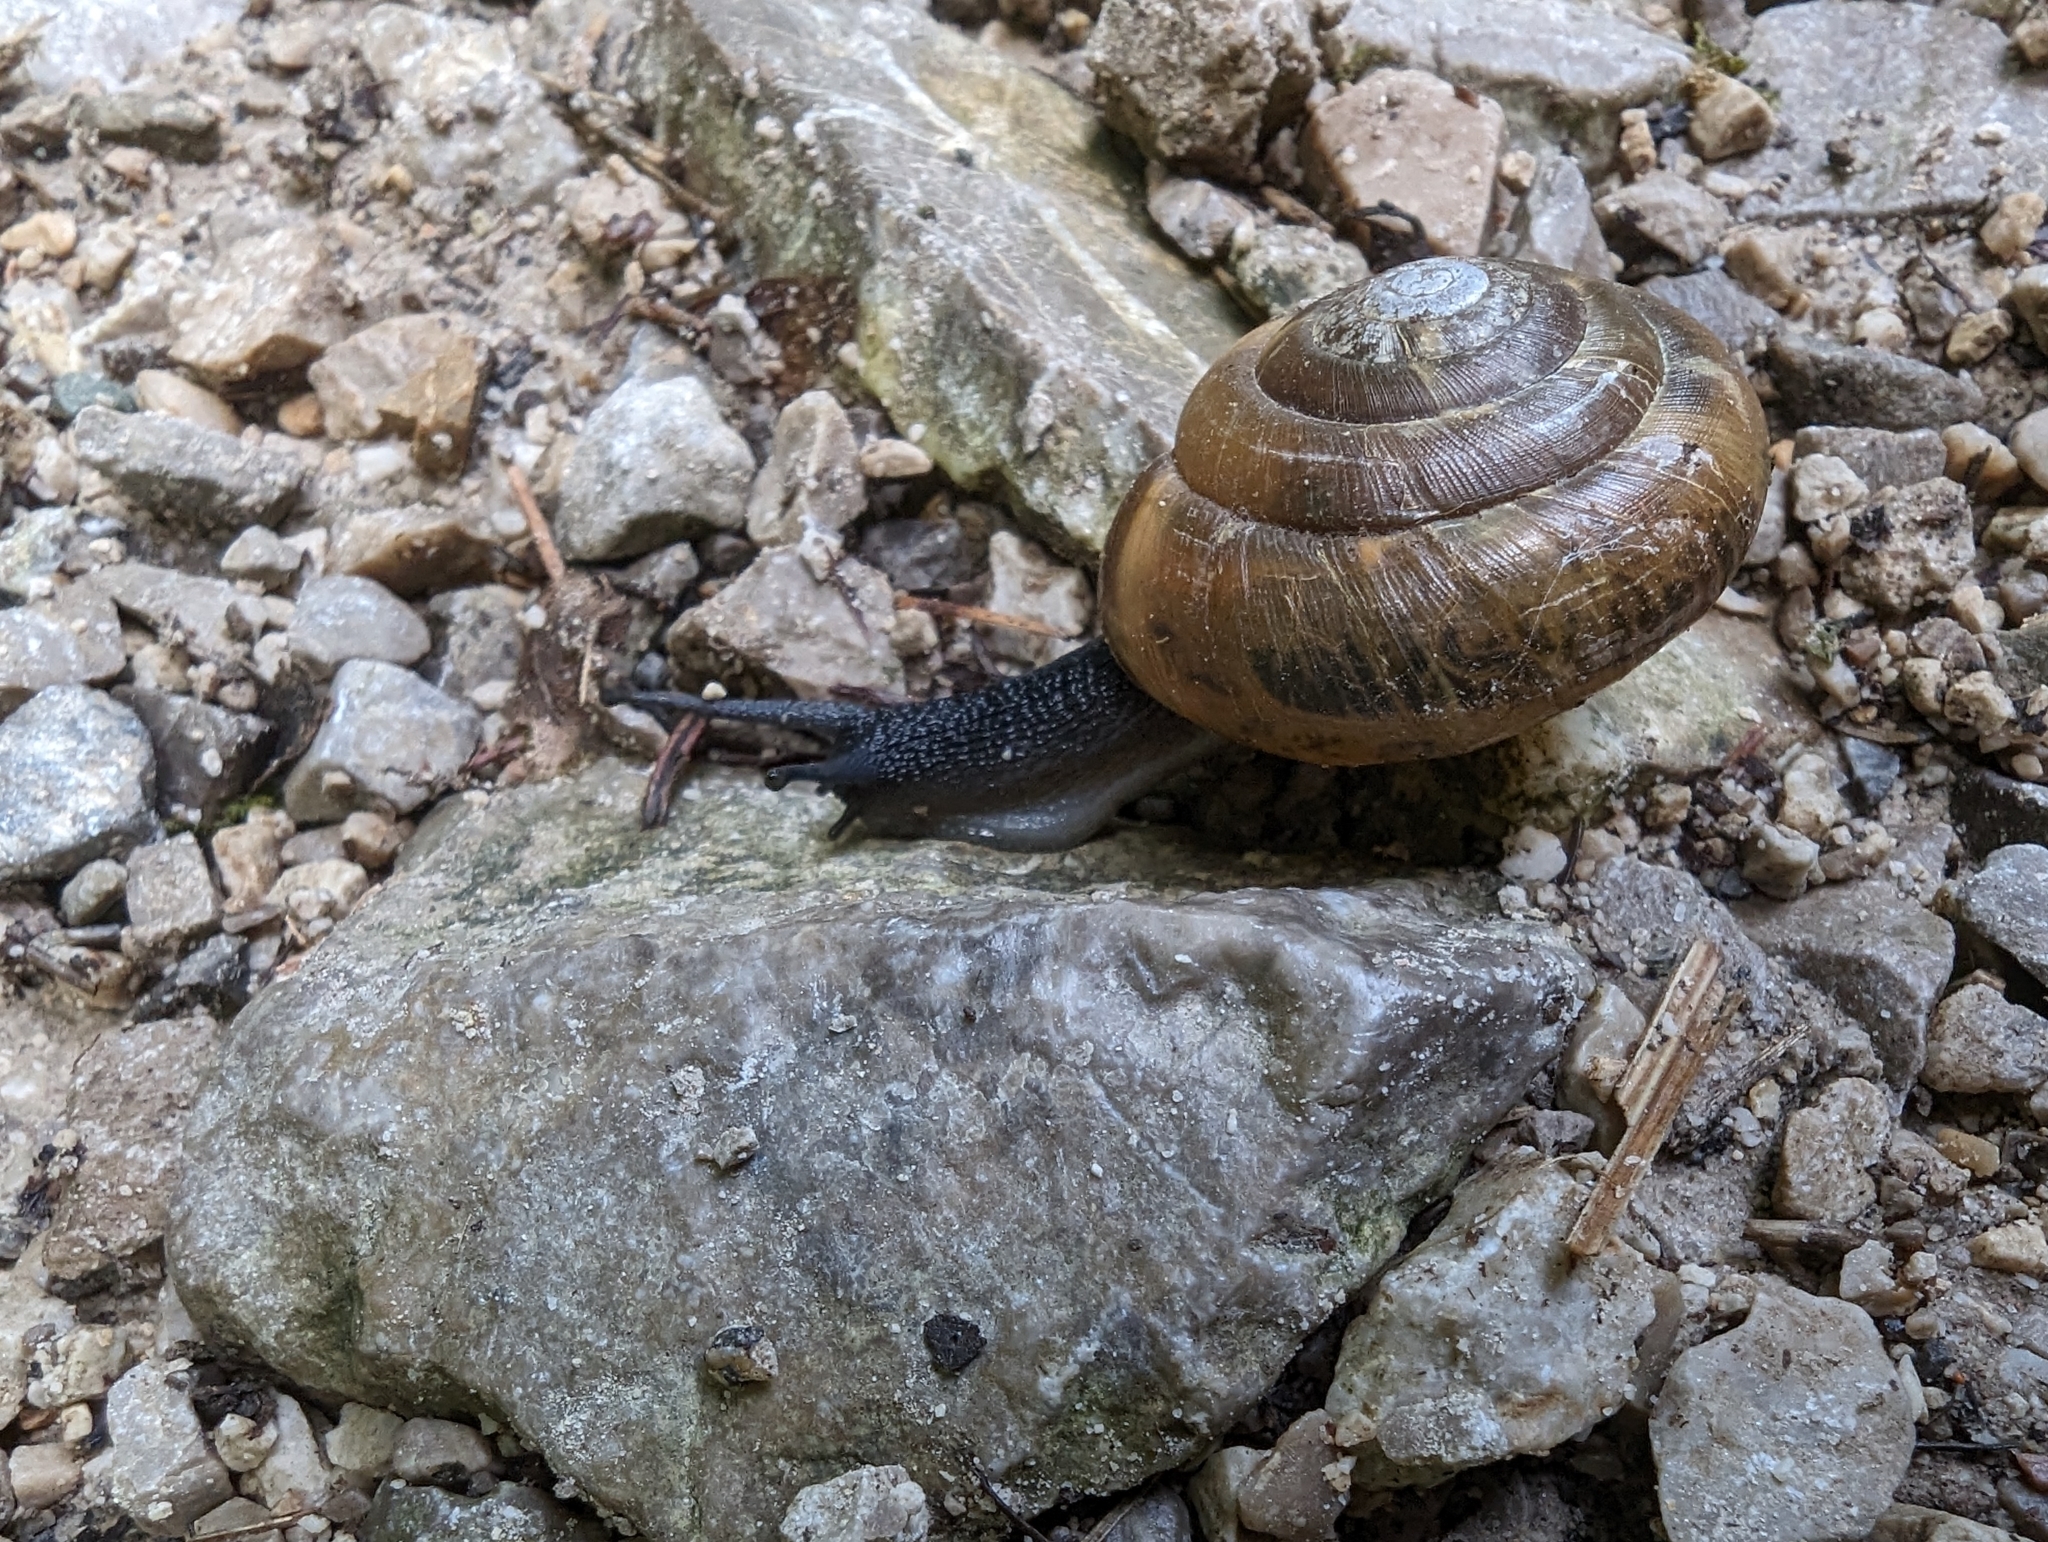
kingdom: Animalia
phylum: Mollusca
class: Gastropoda
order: Stylommatophora
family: Zonitidae
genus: Aegopis
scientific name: Aegopis verticillus
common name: Giant glass snail
